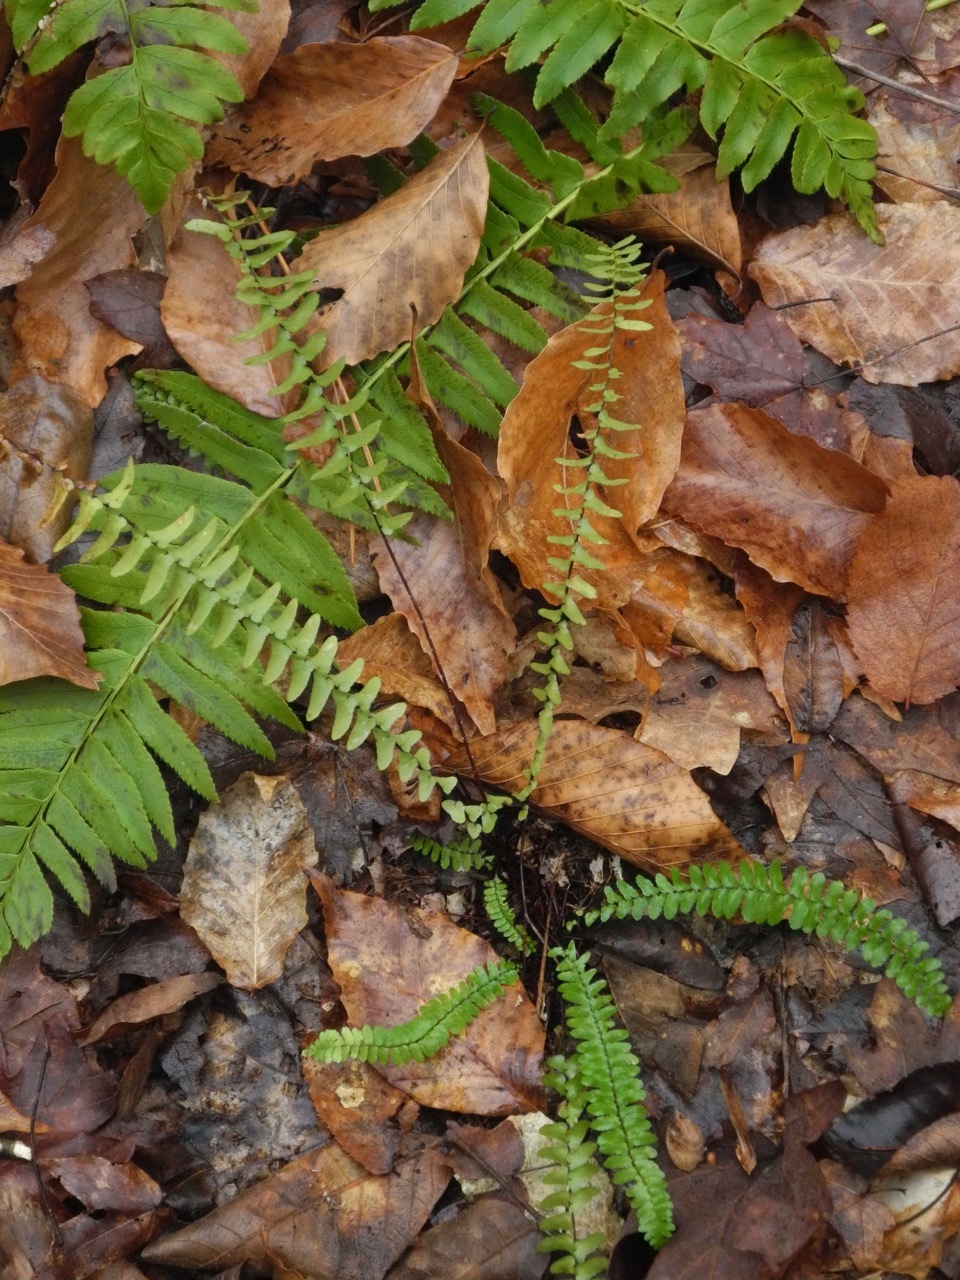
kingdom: Plantae
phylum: Tracheophyta
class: Polypodiopsida
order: Polypodiales
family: Aspleniaceae
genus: Asplenium
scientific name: Asplenium platyneuron
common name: Ebony spleenwort
